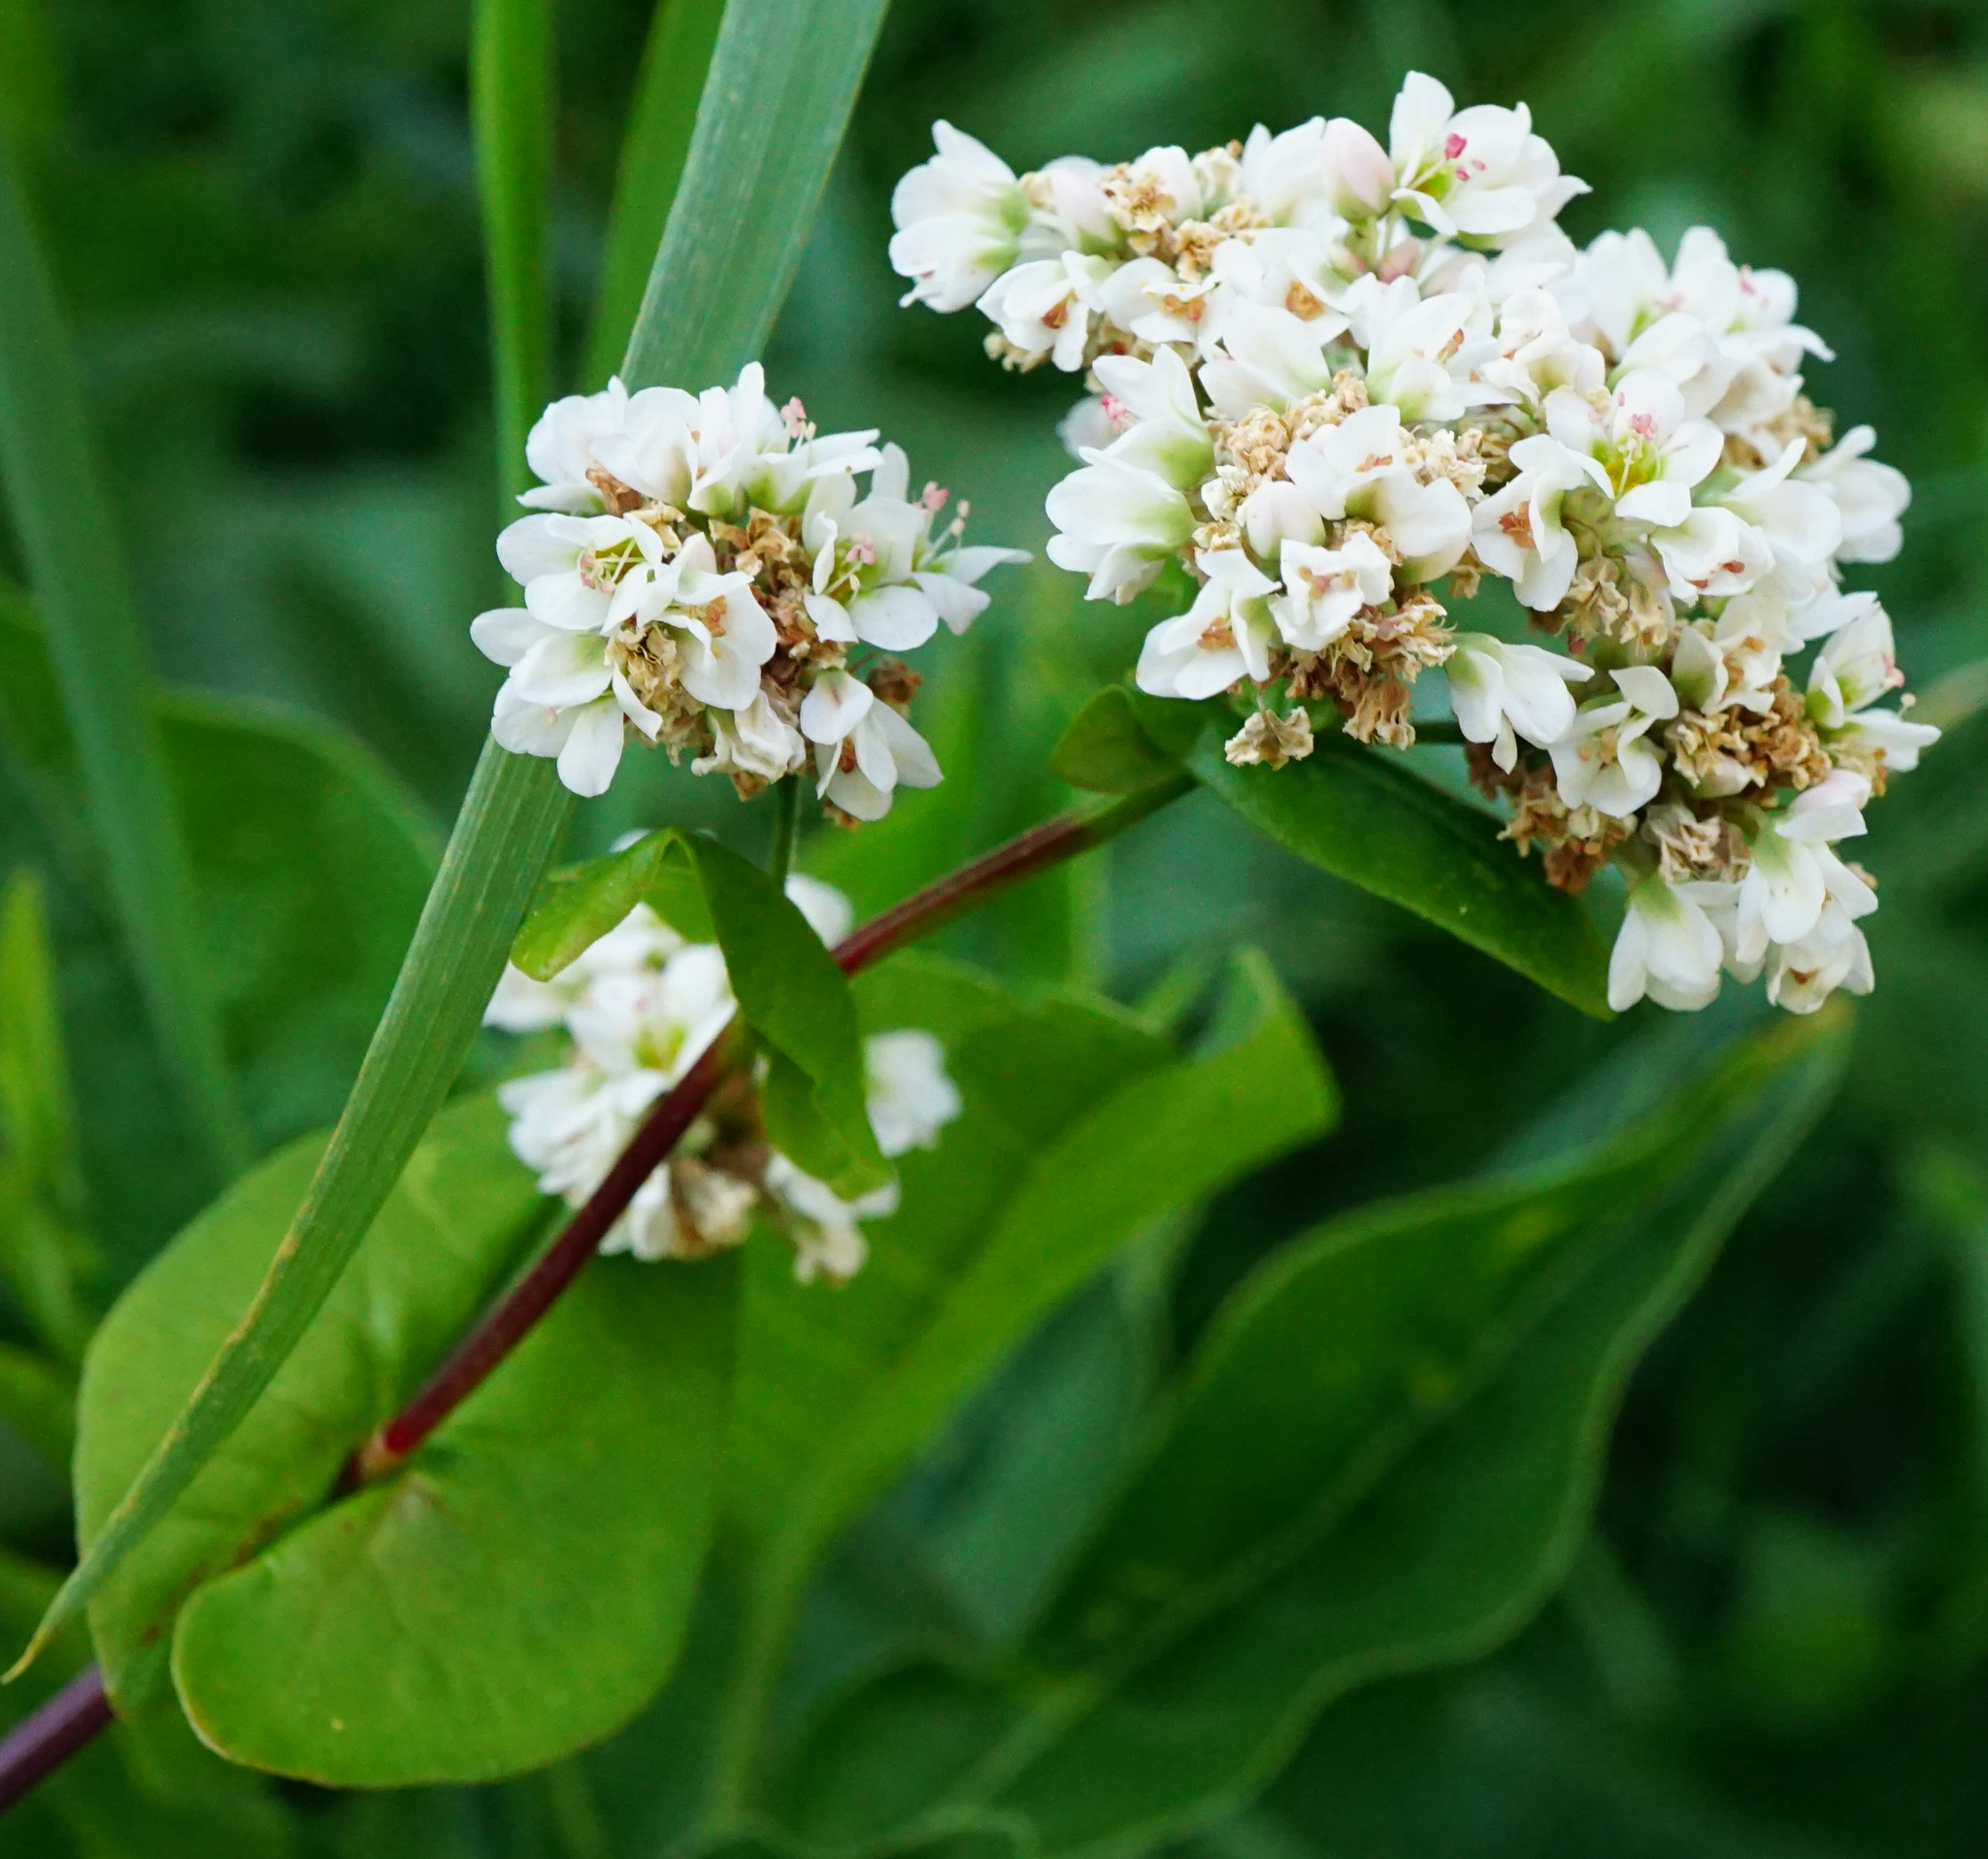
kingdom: Plantae
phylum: Tracheophyta
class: Magnoliopsida
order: Caryophyllales
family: Polygonaceae
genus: Fagopyrum
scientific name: Fagopyrum esculentum
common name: Buckwheat
